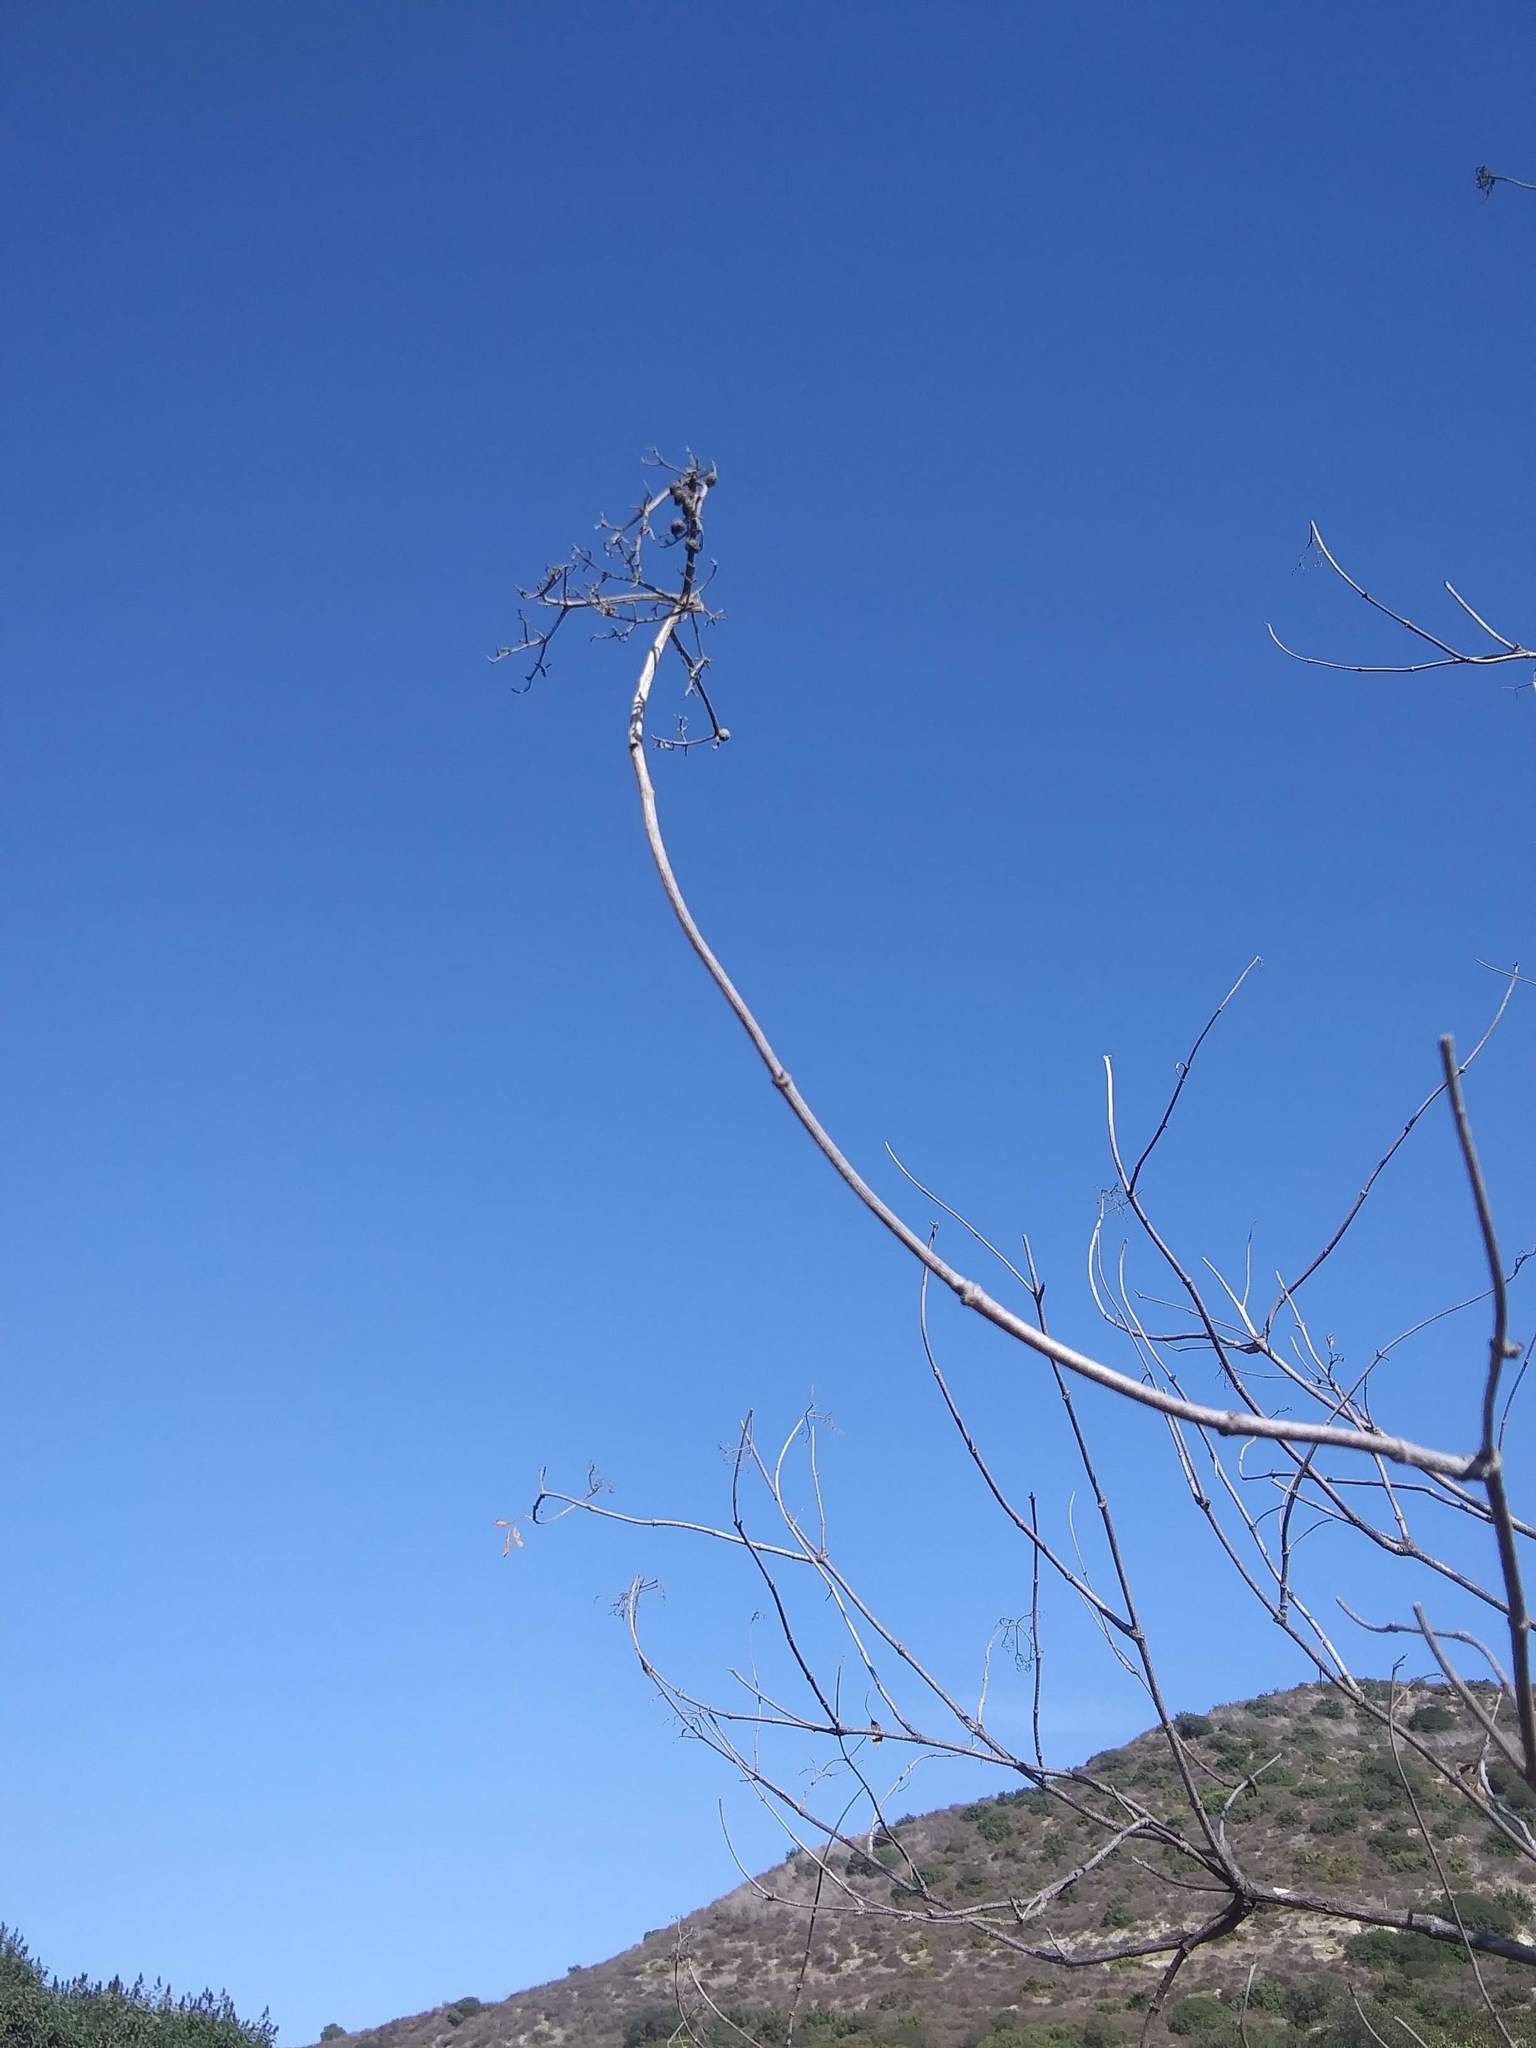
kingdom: Plantae
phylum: Tracheophyta
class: Magnoliopsida
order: Dipsacales
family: Viburnaceae
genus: Sambucus
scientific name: Sambucus cerulea
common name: Blue elder
